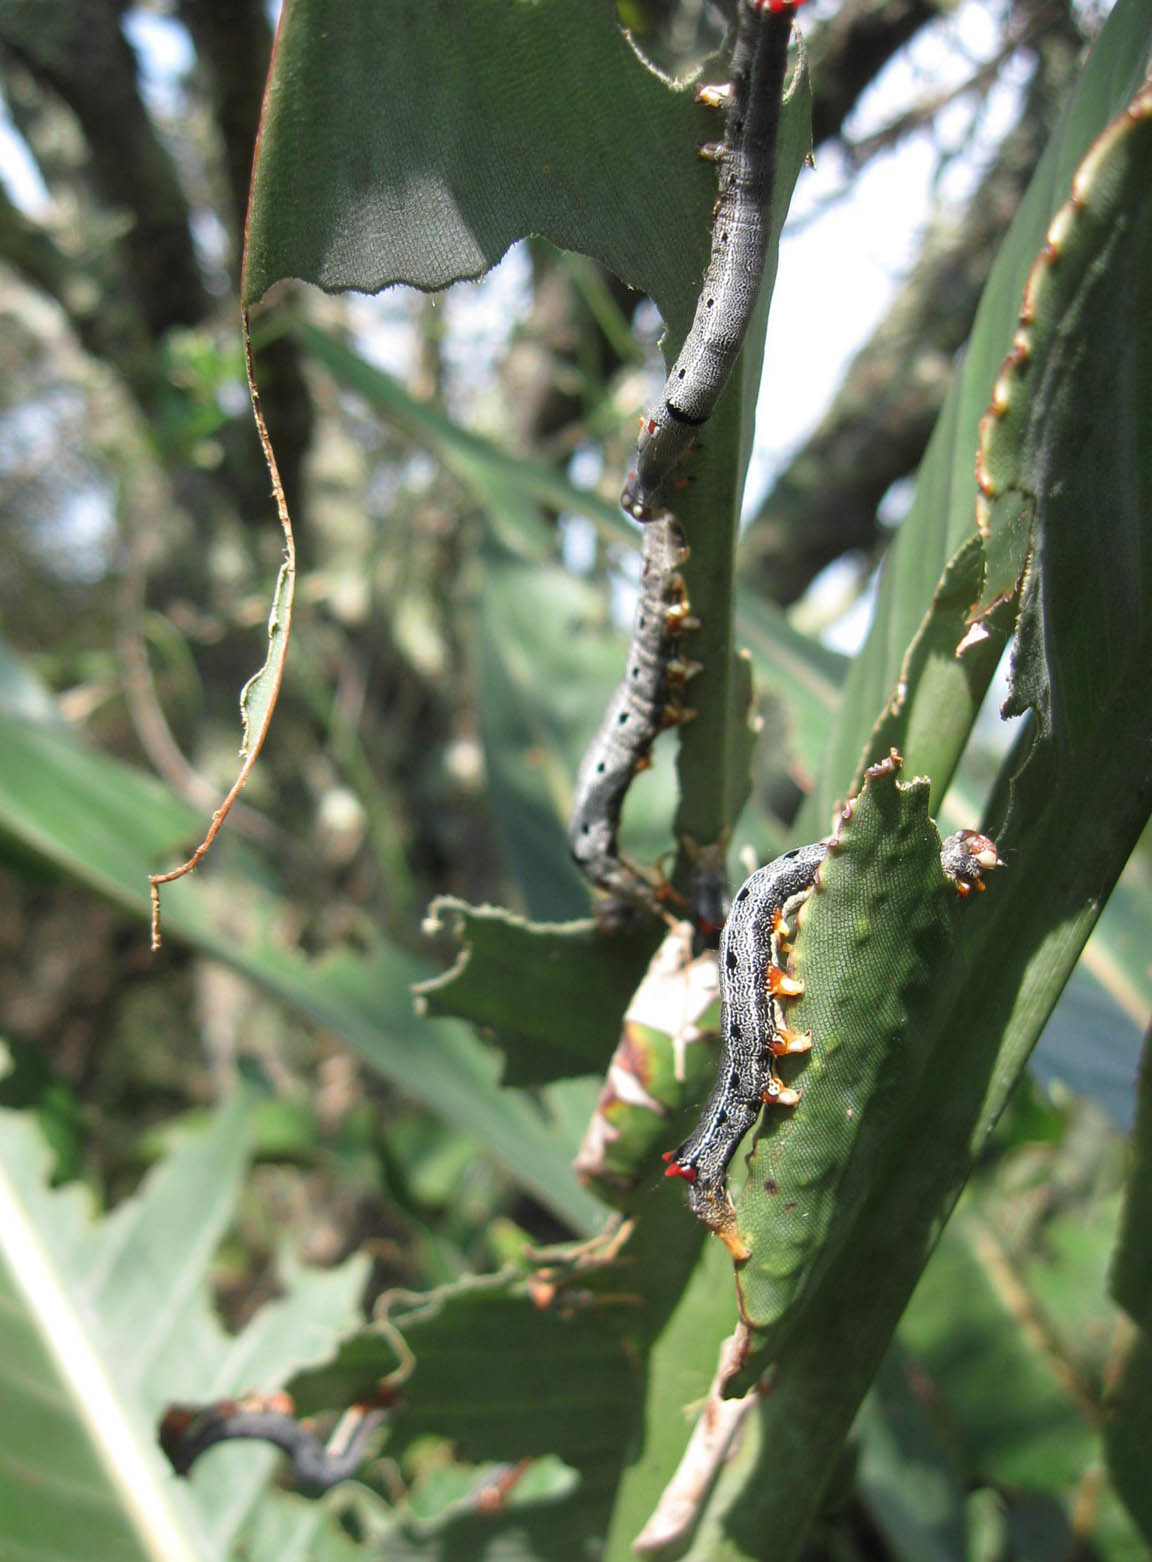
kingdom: Animalia
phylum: Arthropoda
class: Insecta
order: Lepidoptera
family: Erebidae
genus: Achaea
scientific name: Achaea lienardi
